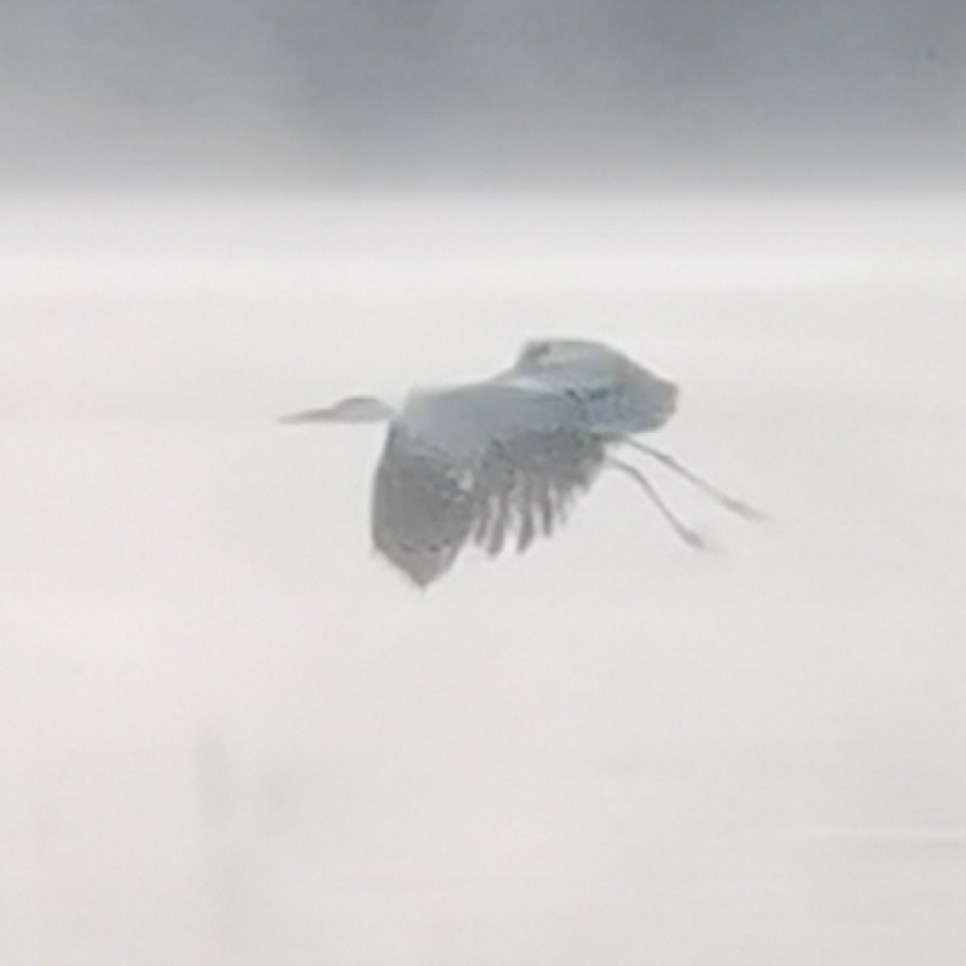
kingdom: Animalia
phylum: Chordata
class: Aves
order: Pelecaniformes
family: Ardeidae
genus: Ardea
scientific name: Ardea cinerea
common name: Grey heron
